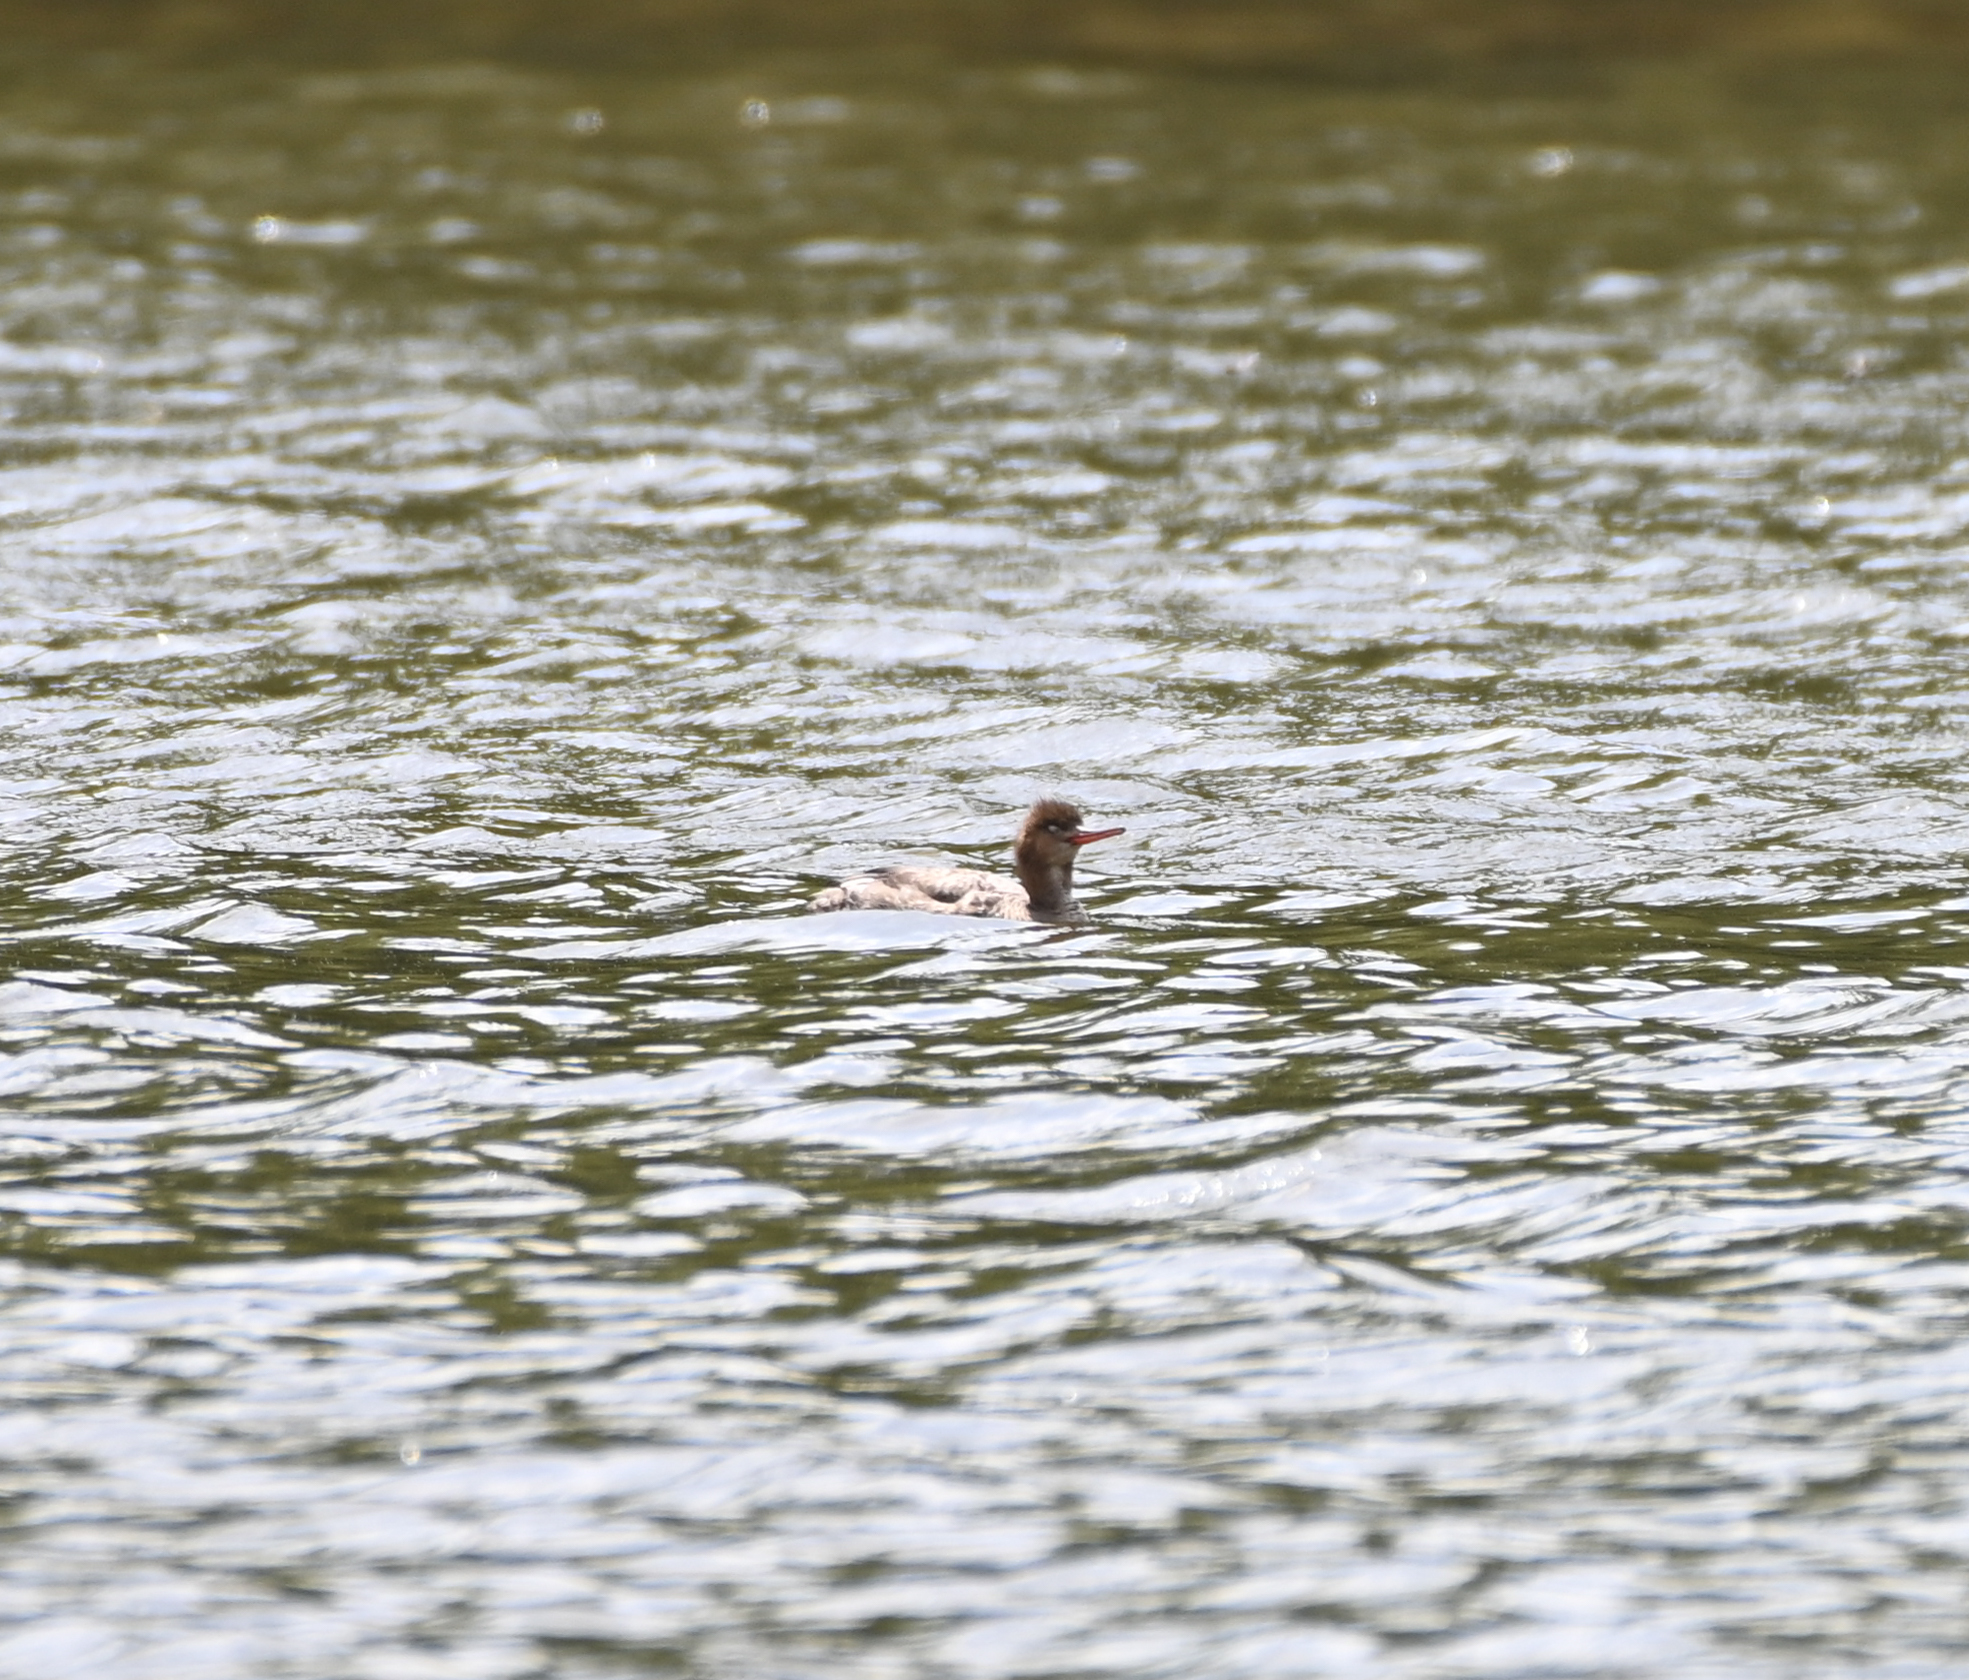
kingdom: Animalia
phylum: Chordata
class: Aves
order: Anseriformes
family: Anatidae
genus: Mergus
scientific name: Mergus serrator
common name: Red-breasted merganser
